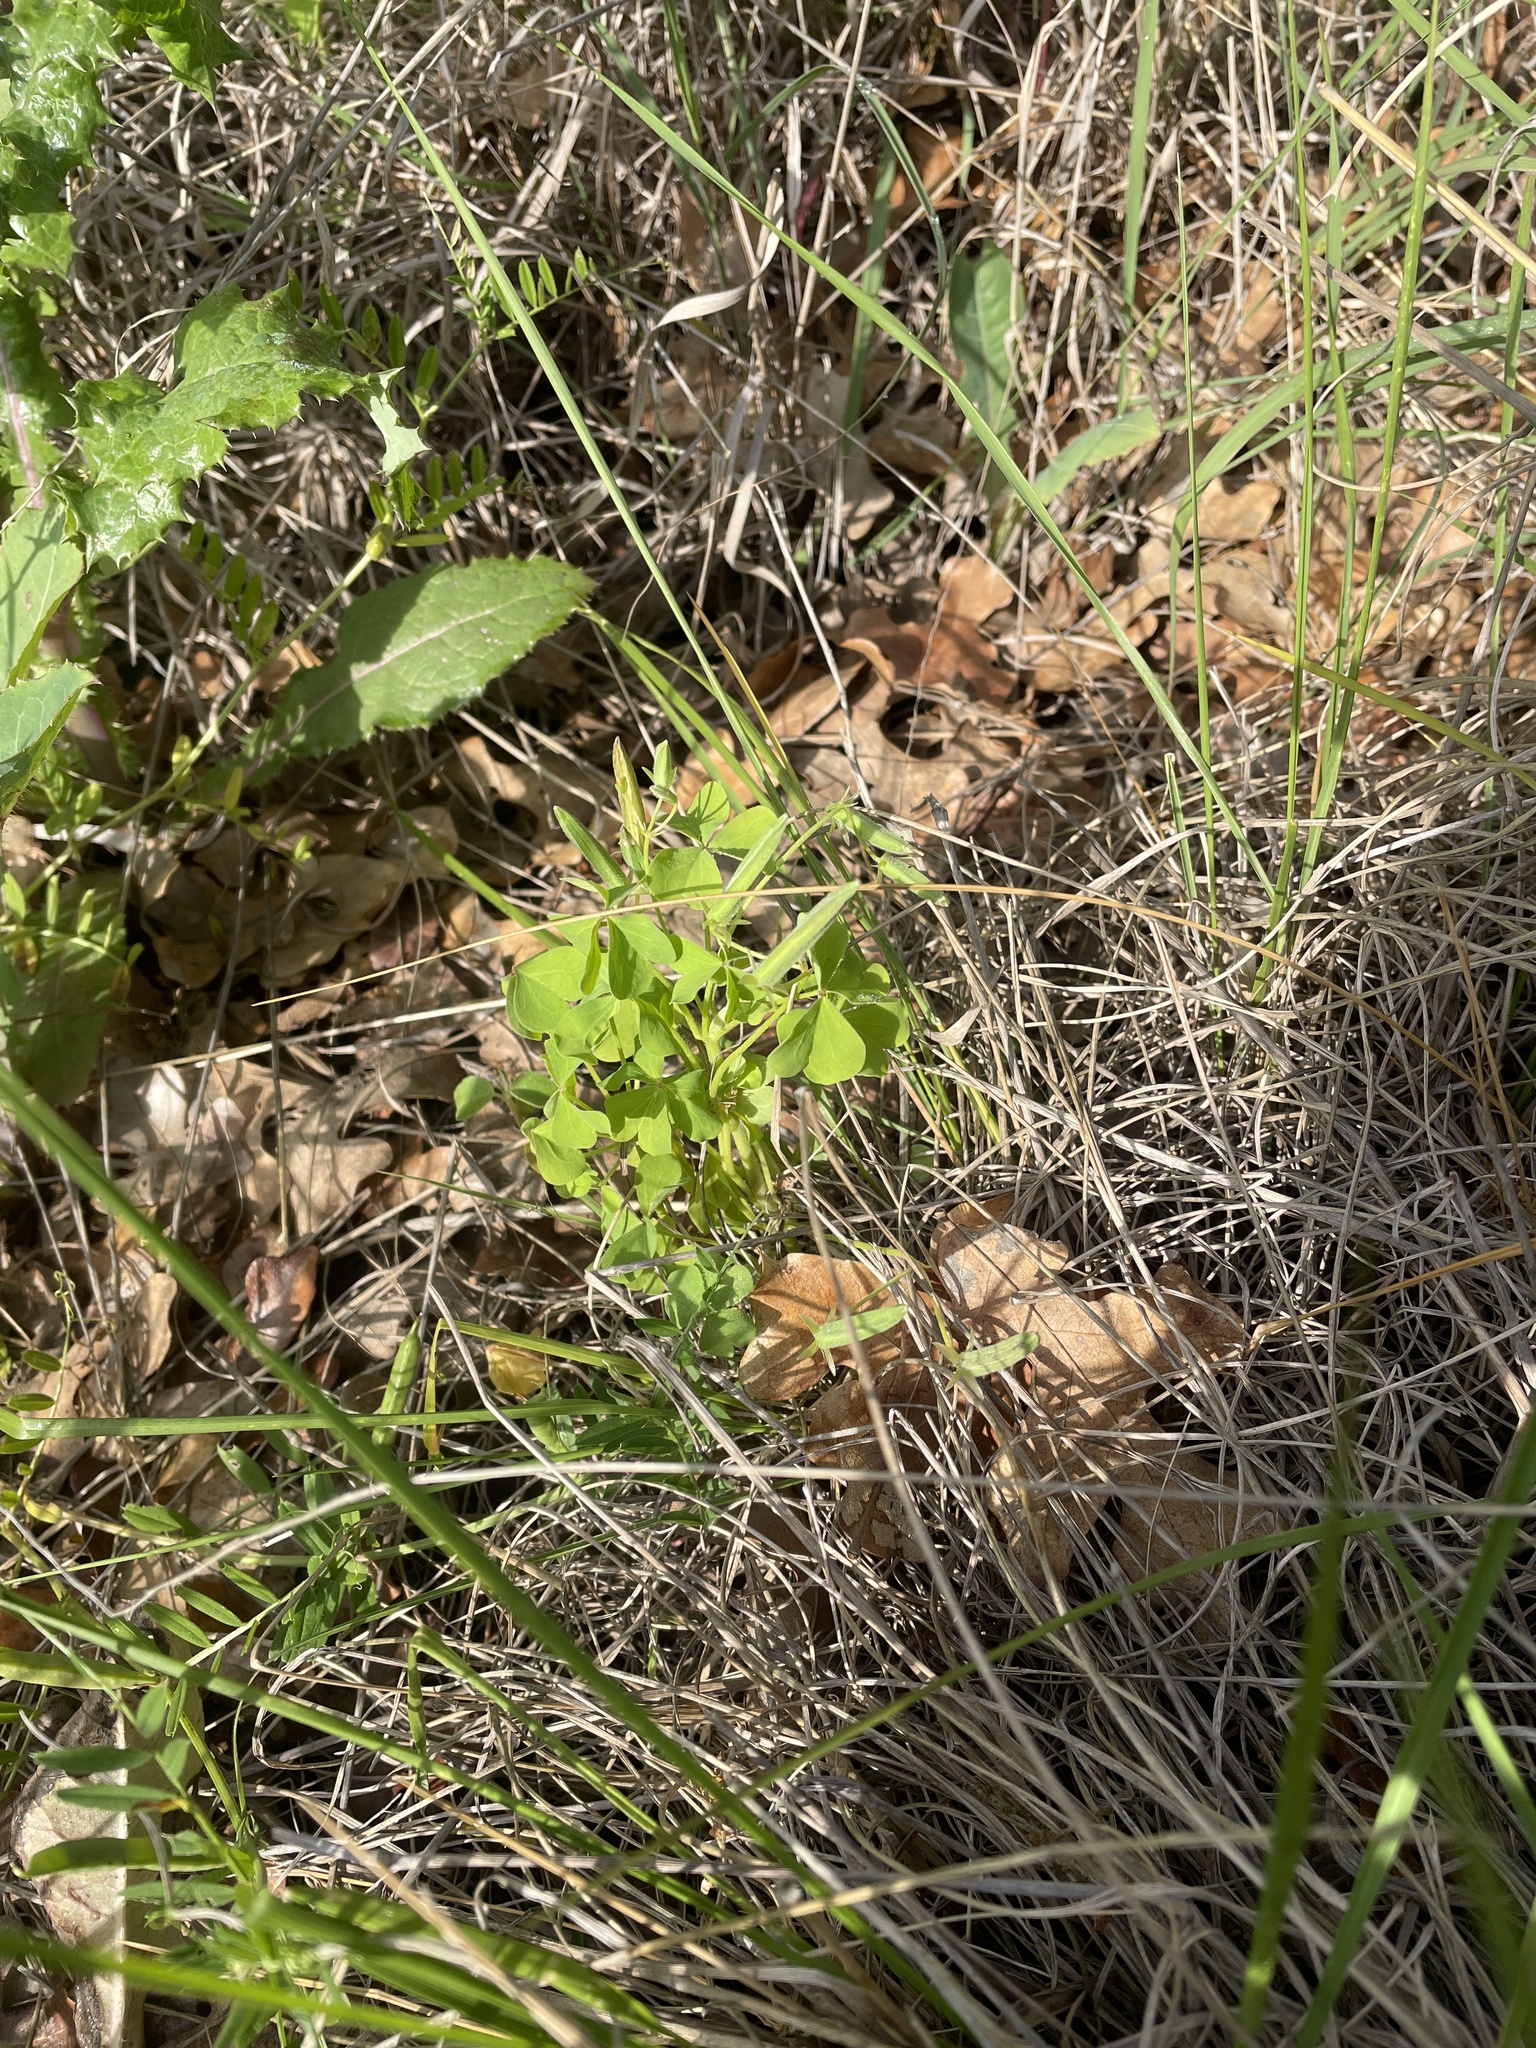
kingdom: Plantae
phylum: Tracheophyta
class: Magnoliopsida
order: Oxalidales
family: Oxalidaceae
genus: Oxalis
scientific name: Oxalis dillenii
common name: Sussex yellow-sorrel
